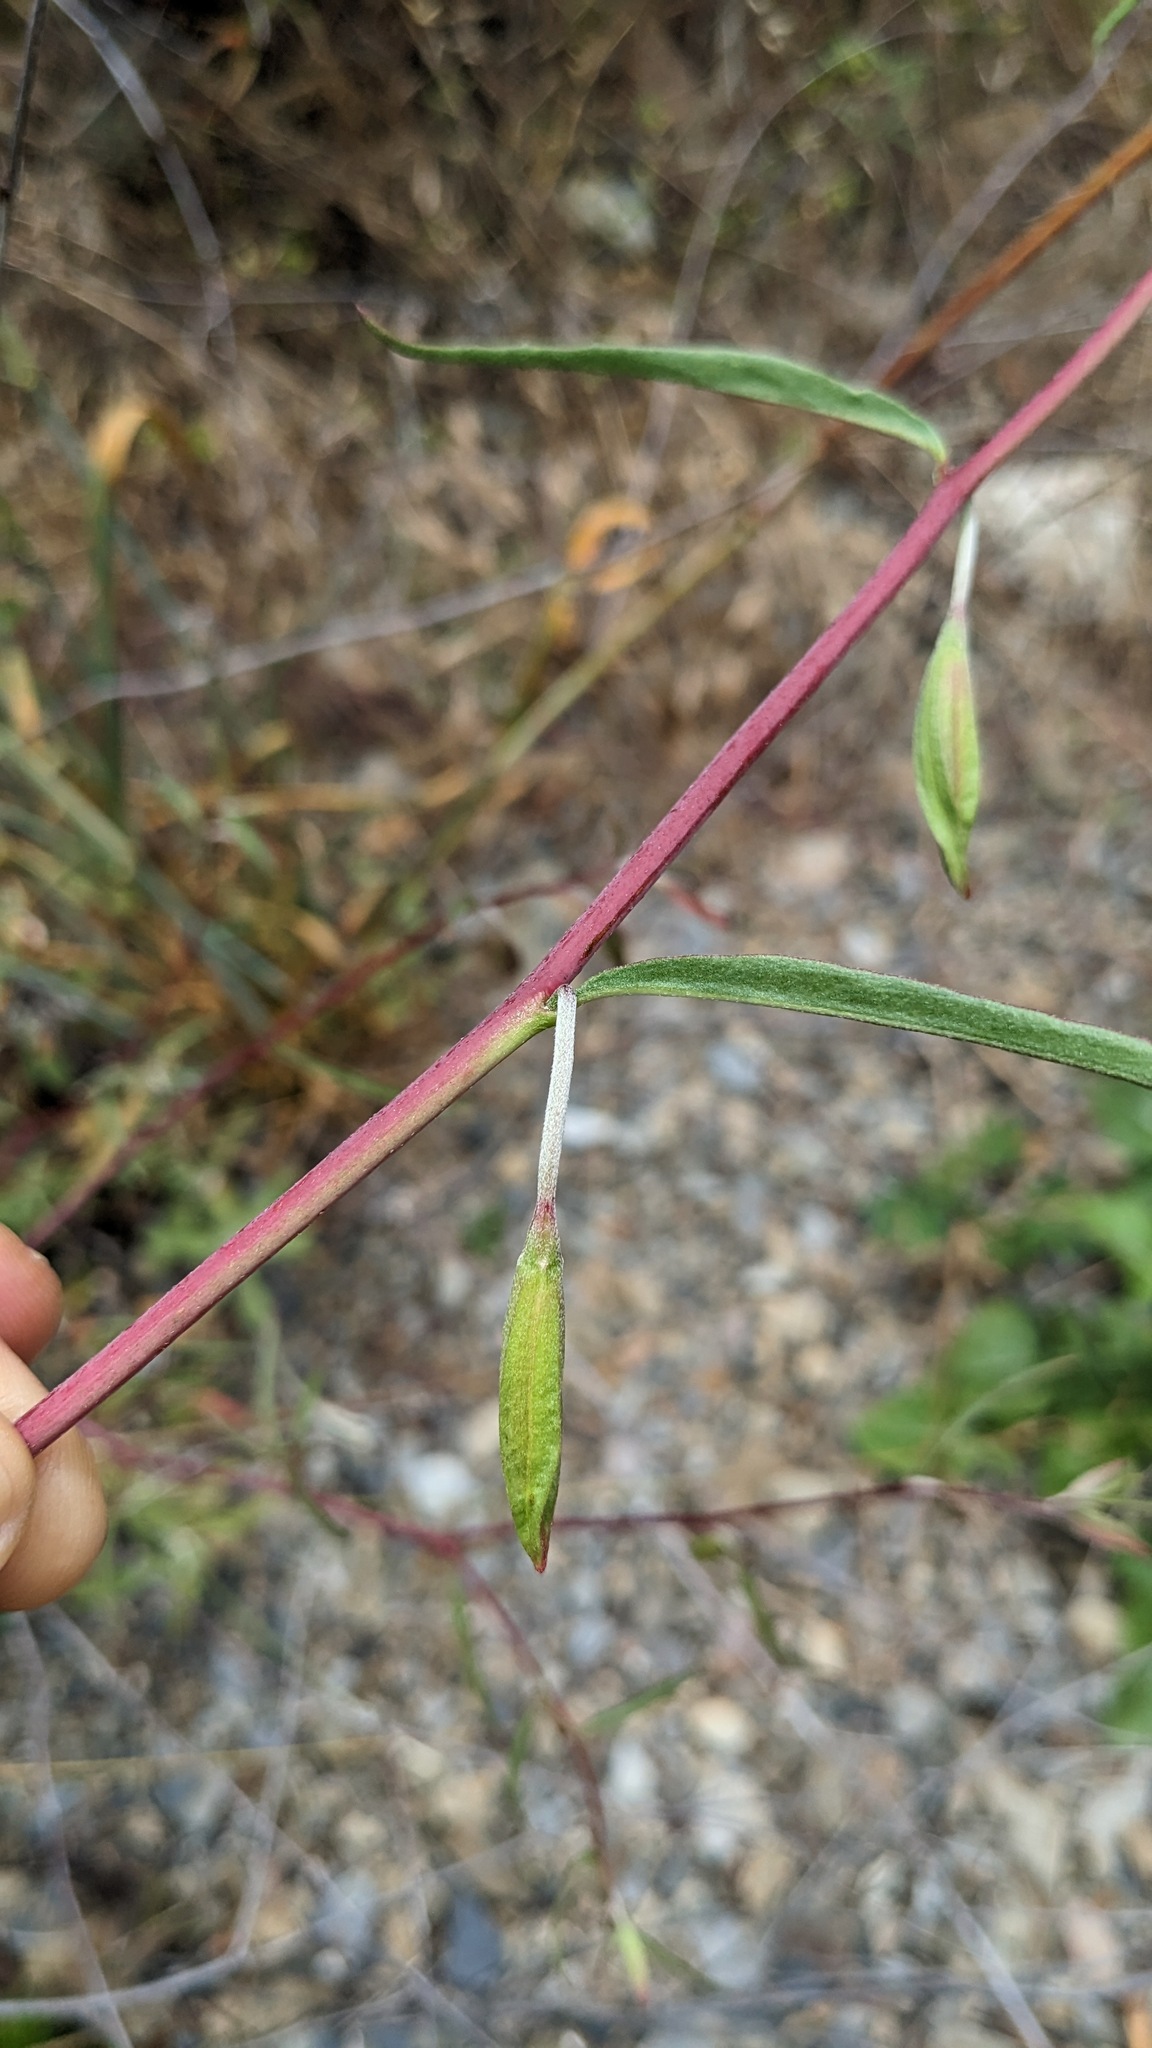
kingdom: Plantae
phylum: Tracheophyta
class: Magnoliopsida
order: Myrtales
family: Onagraceae
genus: Clarkia
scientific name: Clarkia bottae
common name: Punch-bowl godetia
